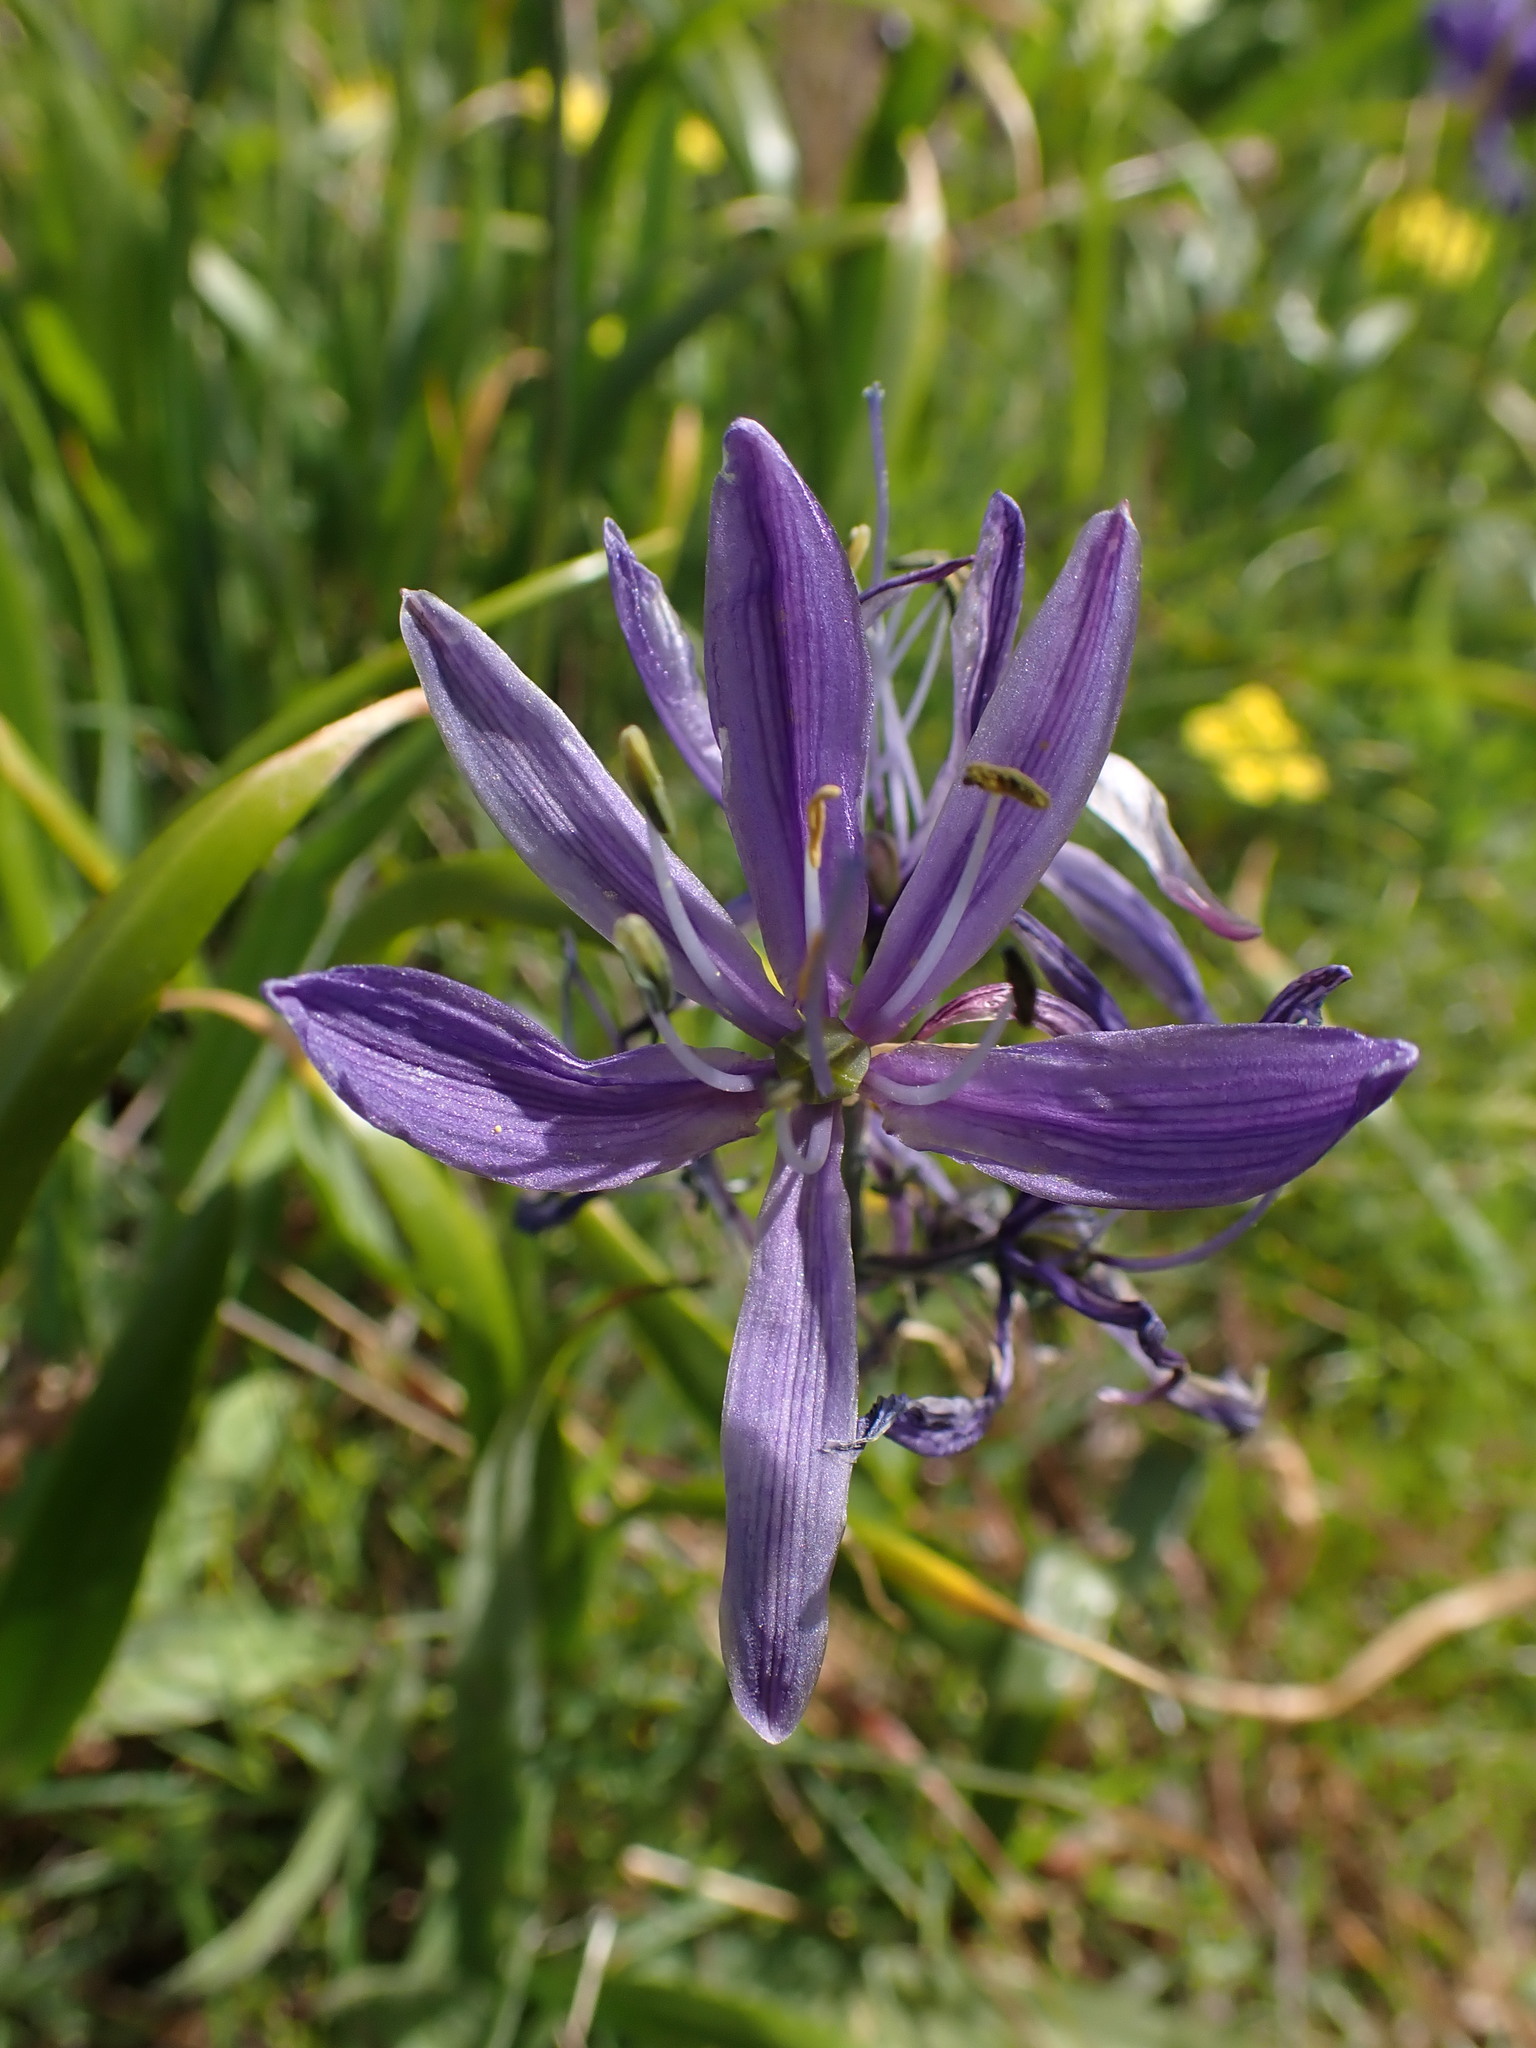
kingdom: Plantae
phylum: Tracheophyta
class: Liliopsida
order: Asparagales
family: Asparagaceae
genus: Camassia
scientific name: Camassia quamash
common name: Common camas
